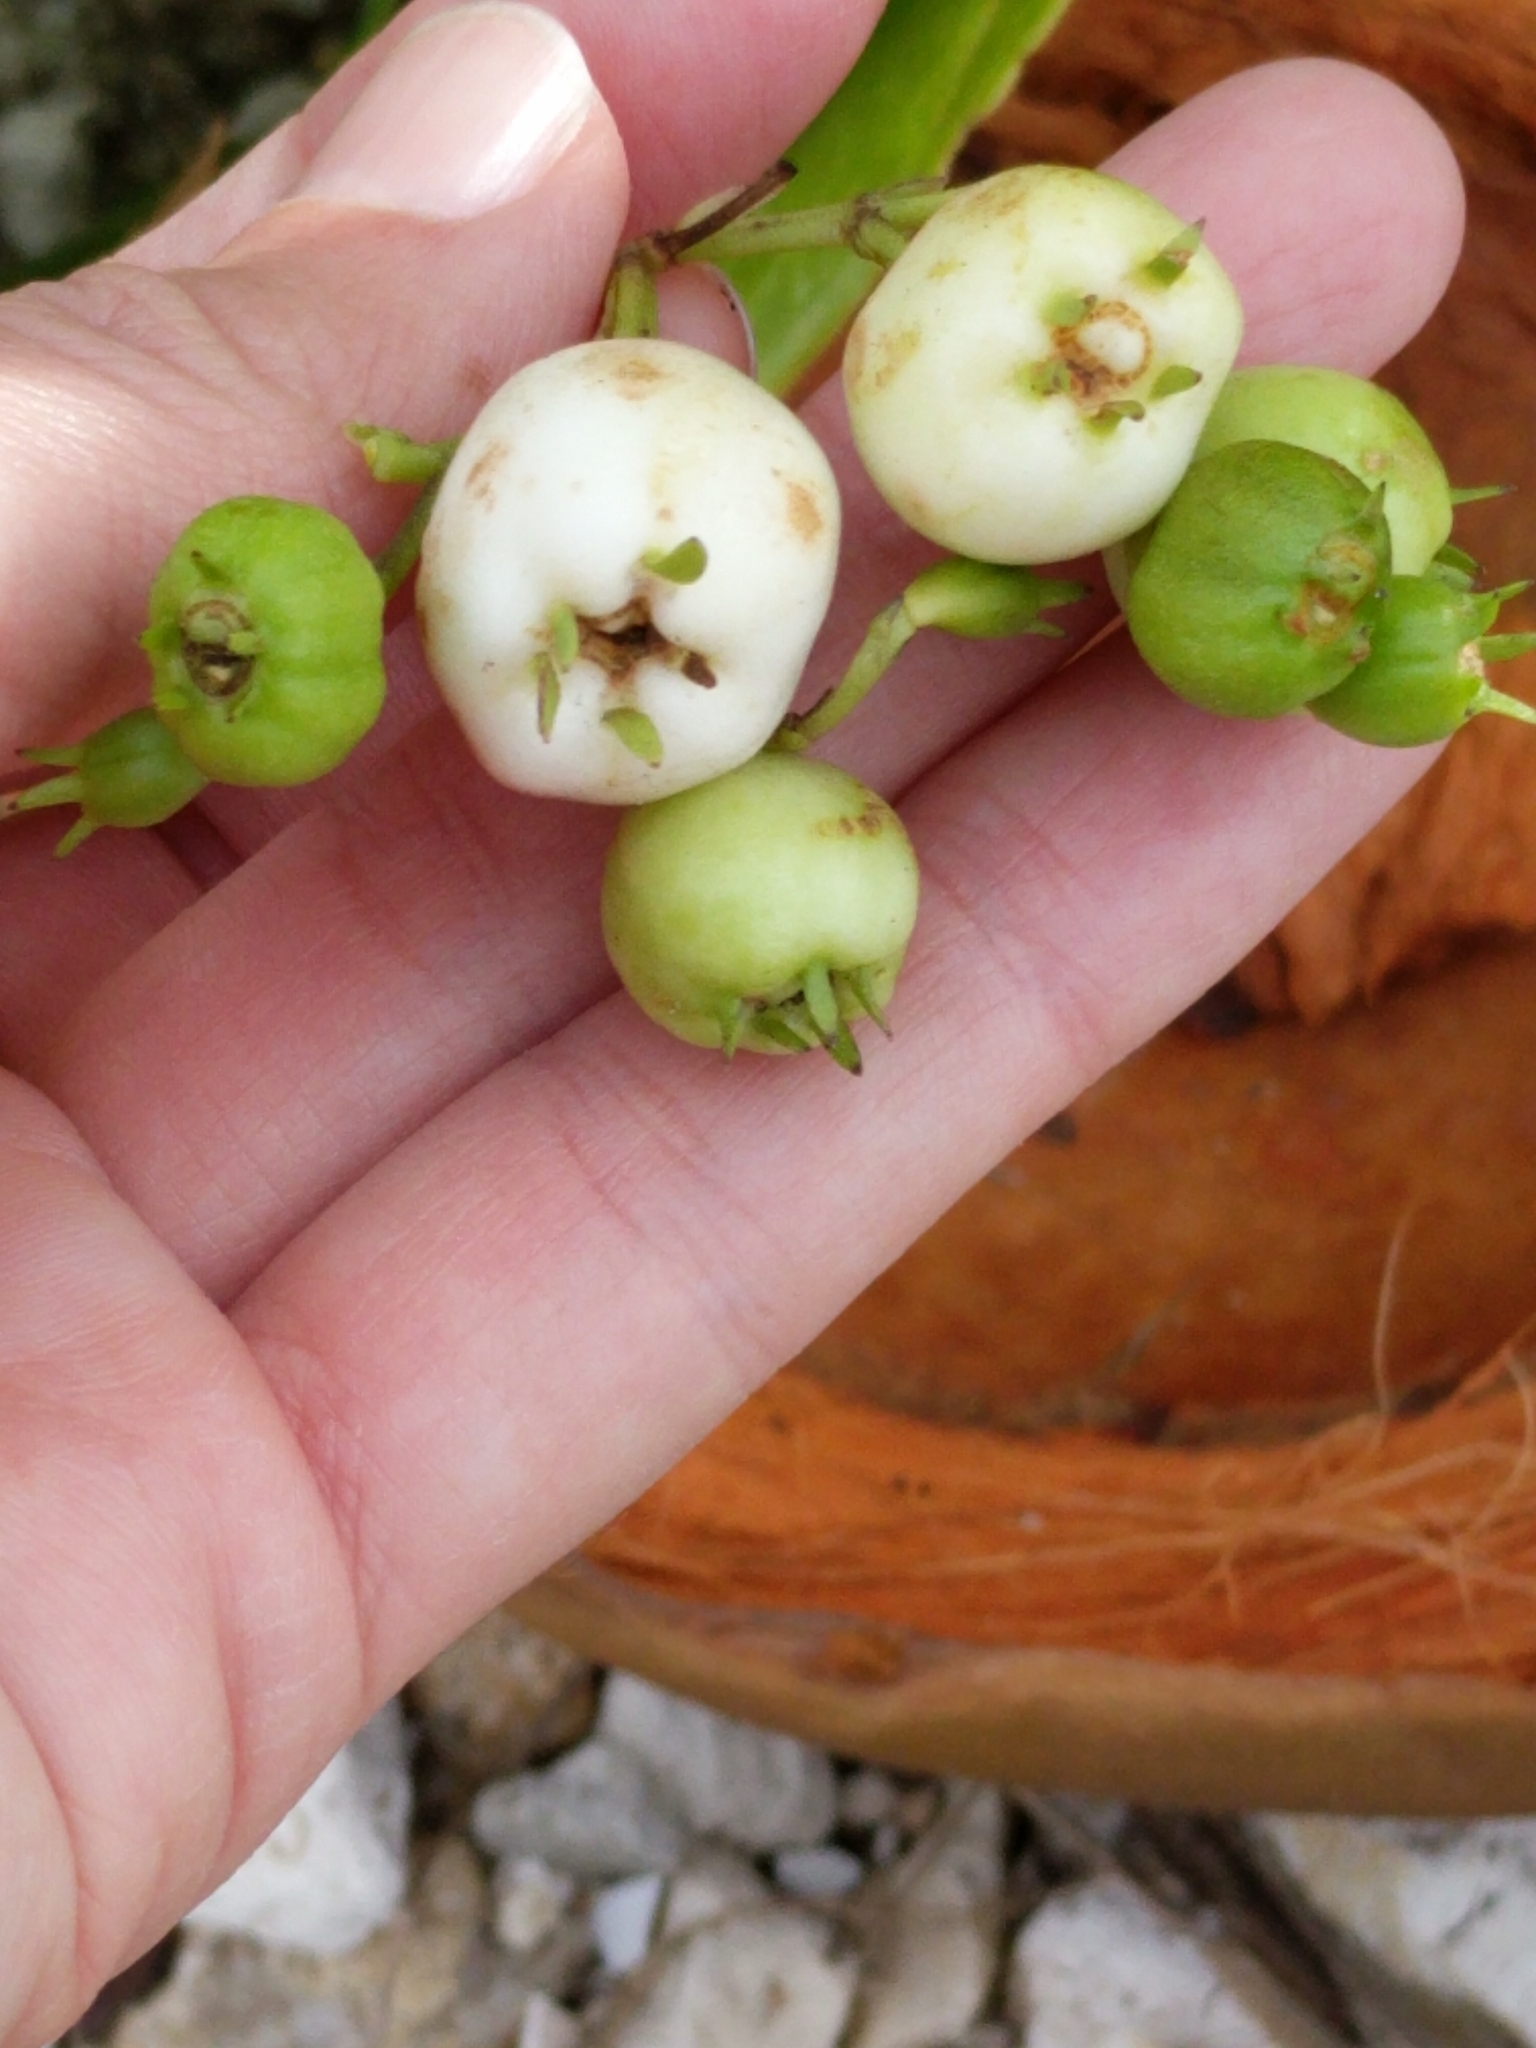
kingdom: Plantae
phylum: Tracheophyta
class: Magnoliopsida
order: Asterales
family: Goodeniaceae
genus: Scaevola
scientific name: Scaevola taccada
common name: Sea lettucetree
